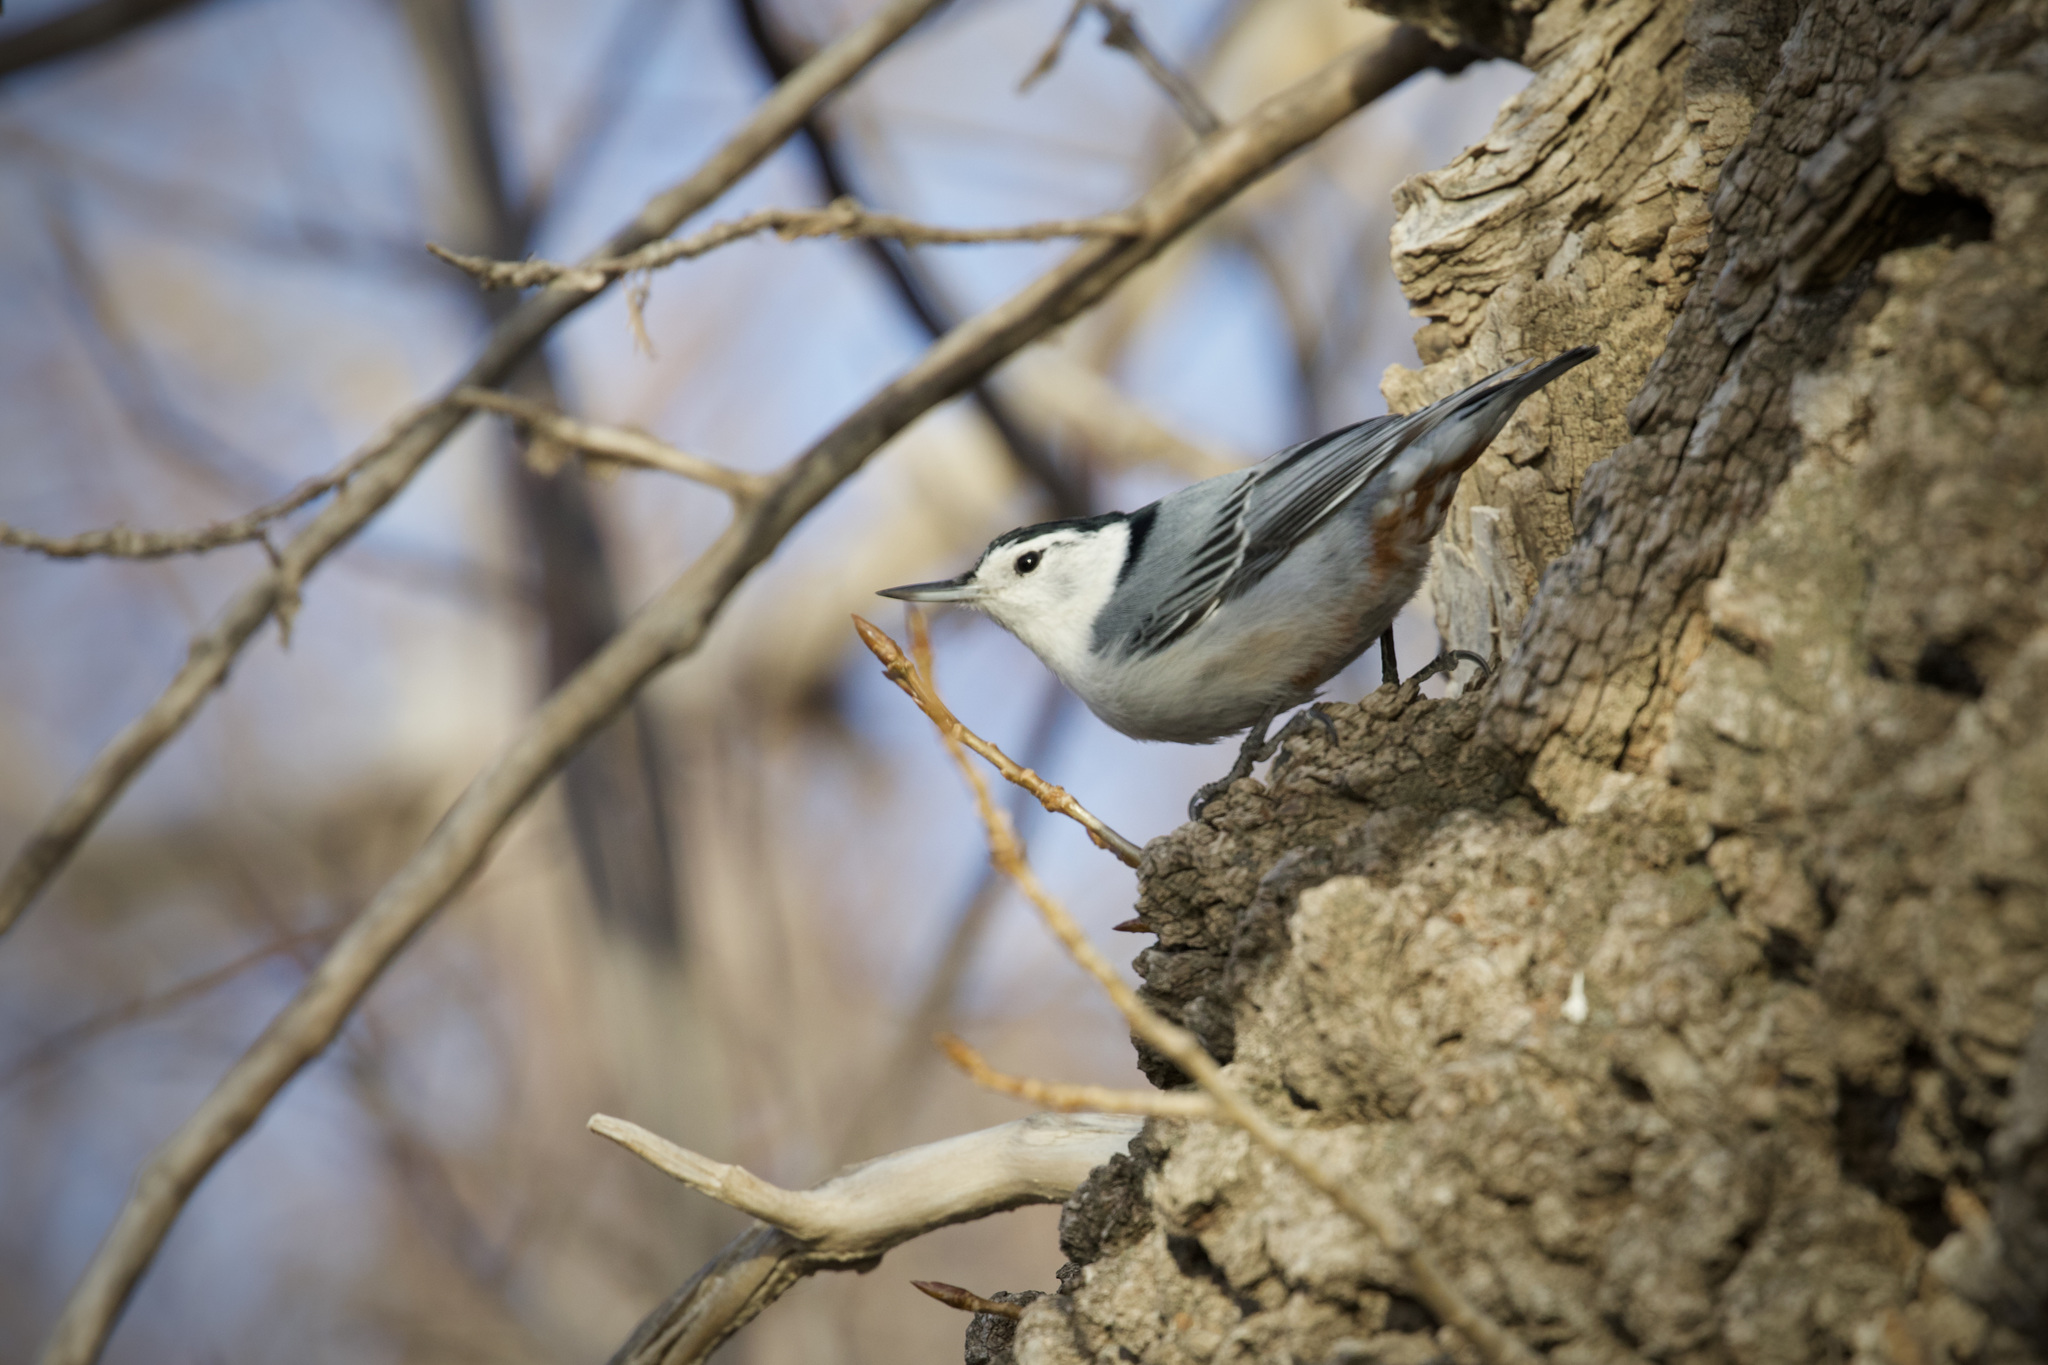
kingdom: Animalia
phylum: Chordata
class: Aves
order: Passeriformes
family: Sittidae
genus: Sitta
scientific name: Sitta carolinensis
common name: White-breasted nuthatch
